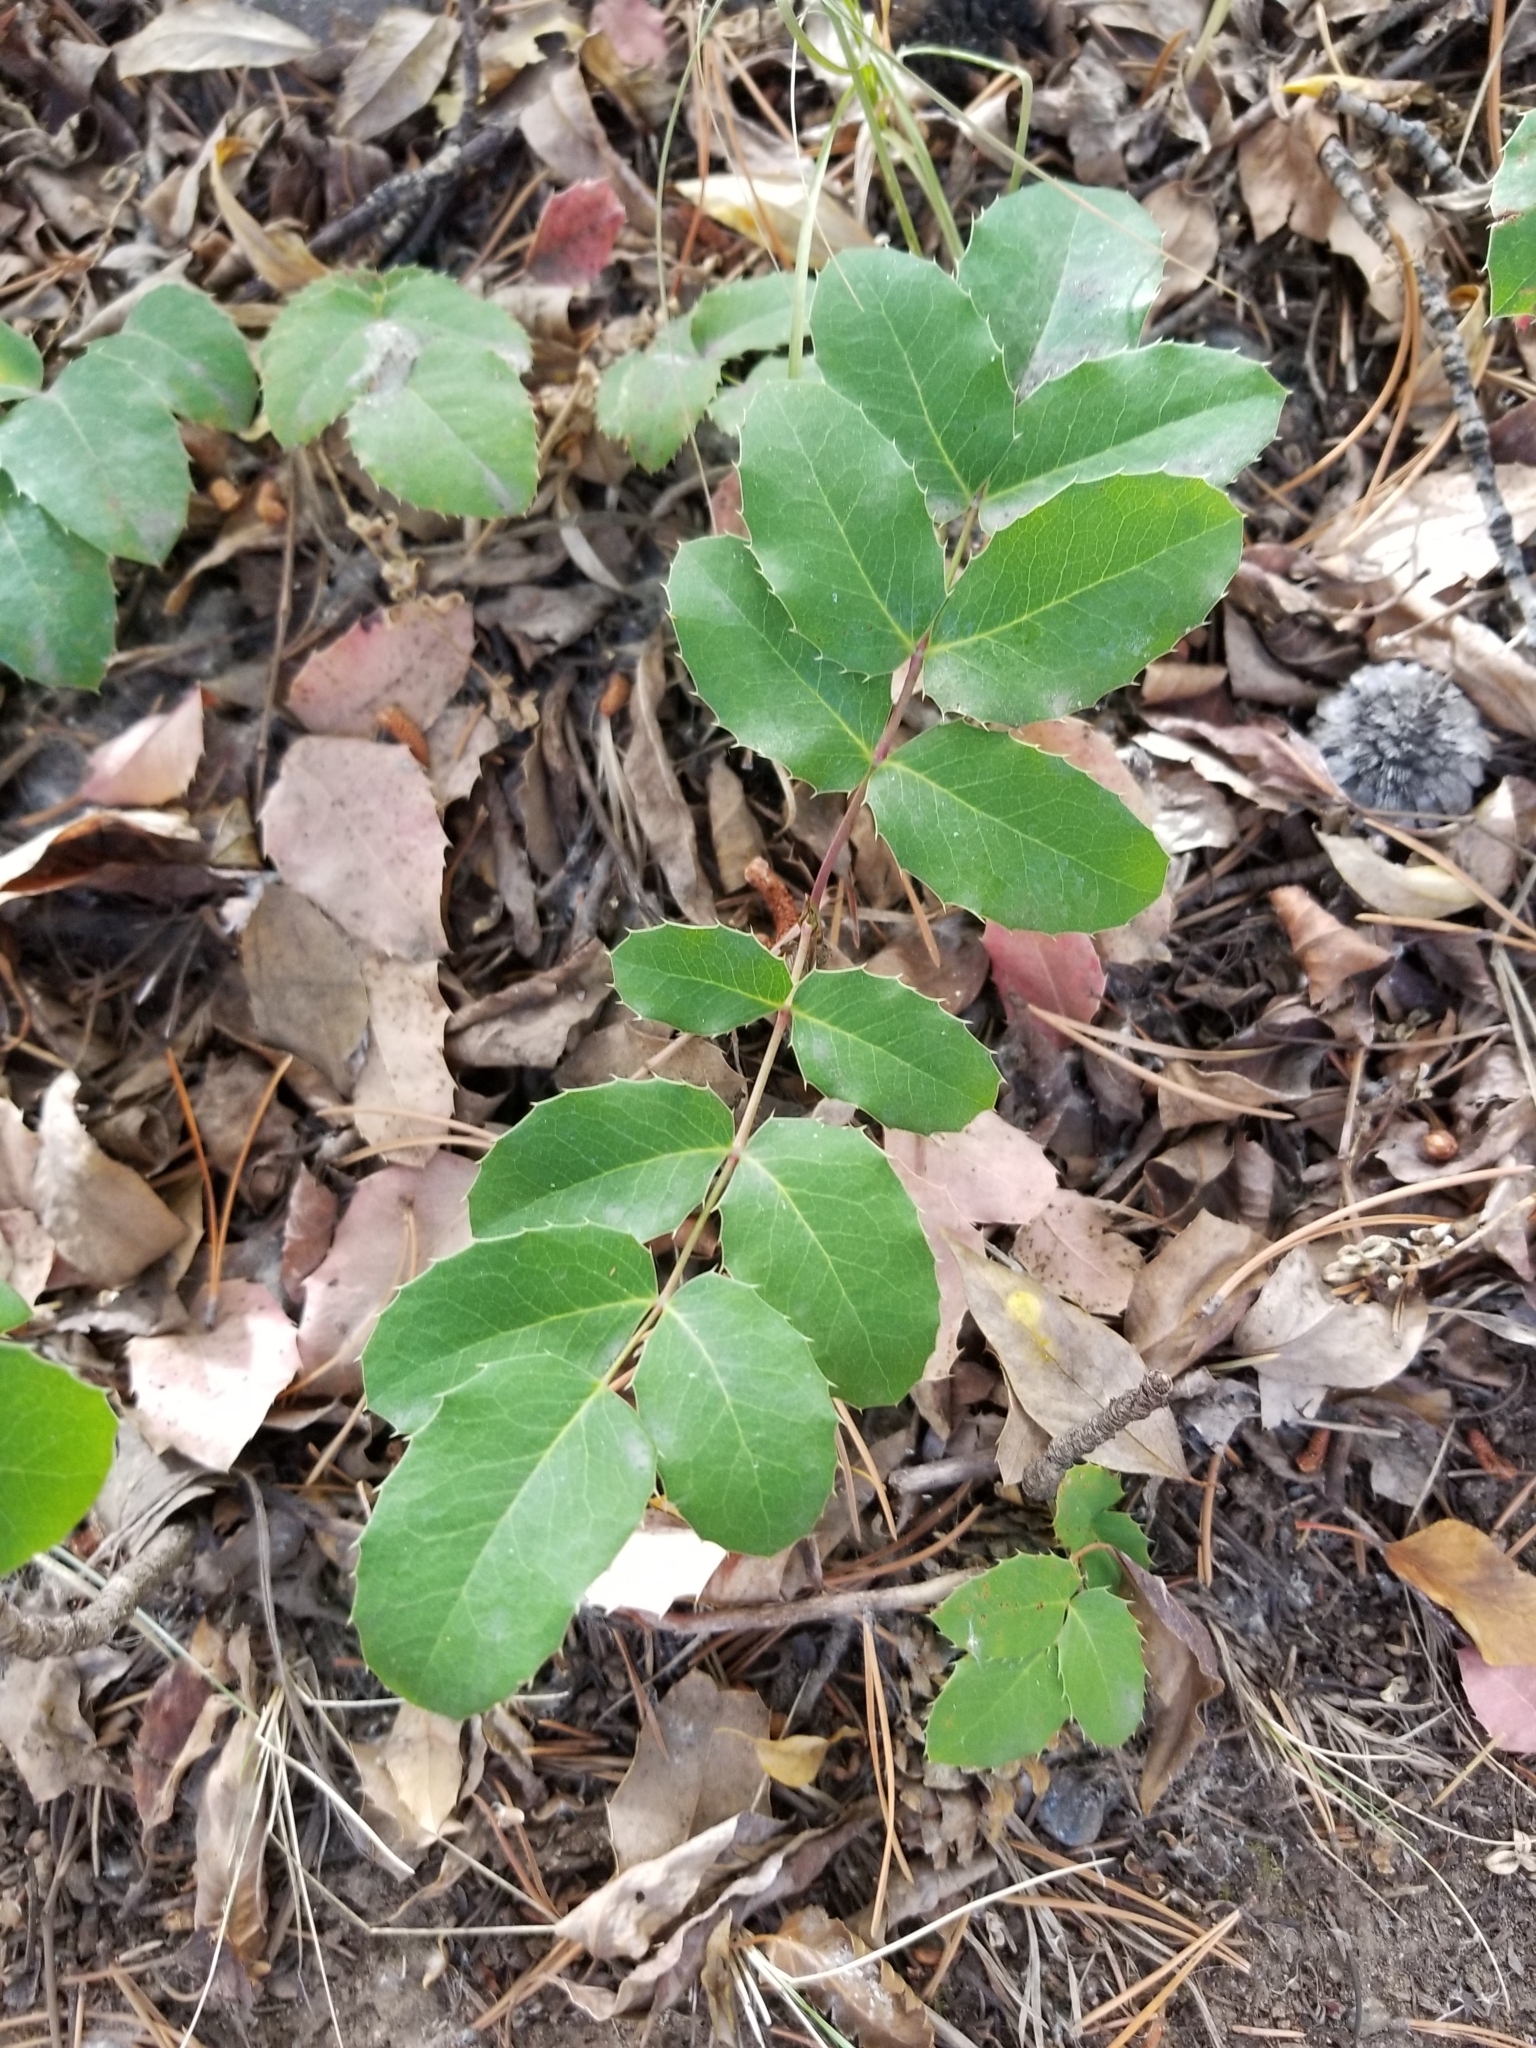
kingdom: Plantae
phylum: Tracheophyta
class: Magnoliopsida
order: Ranunculales
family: Berberidaceae
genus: Mahonia
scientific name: Mahonia repens
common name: Creeping oregon-grape
